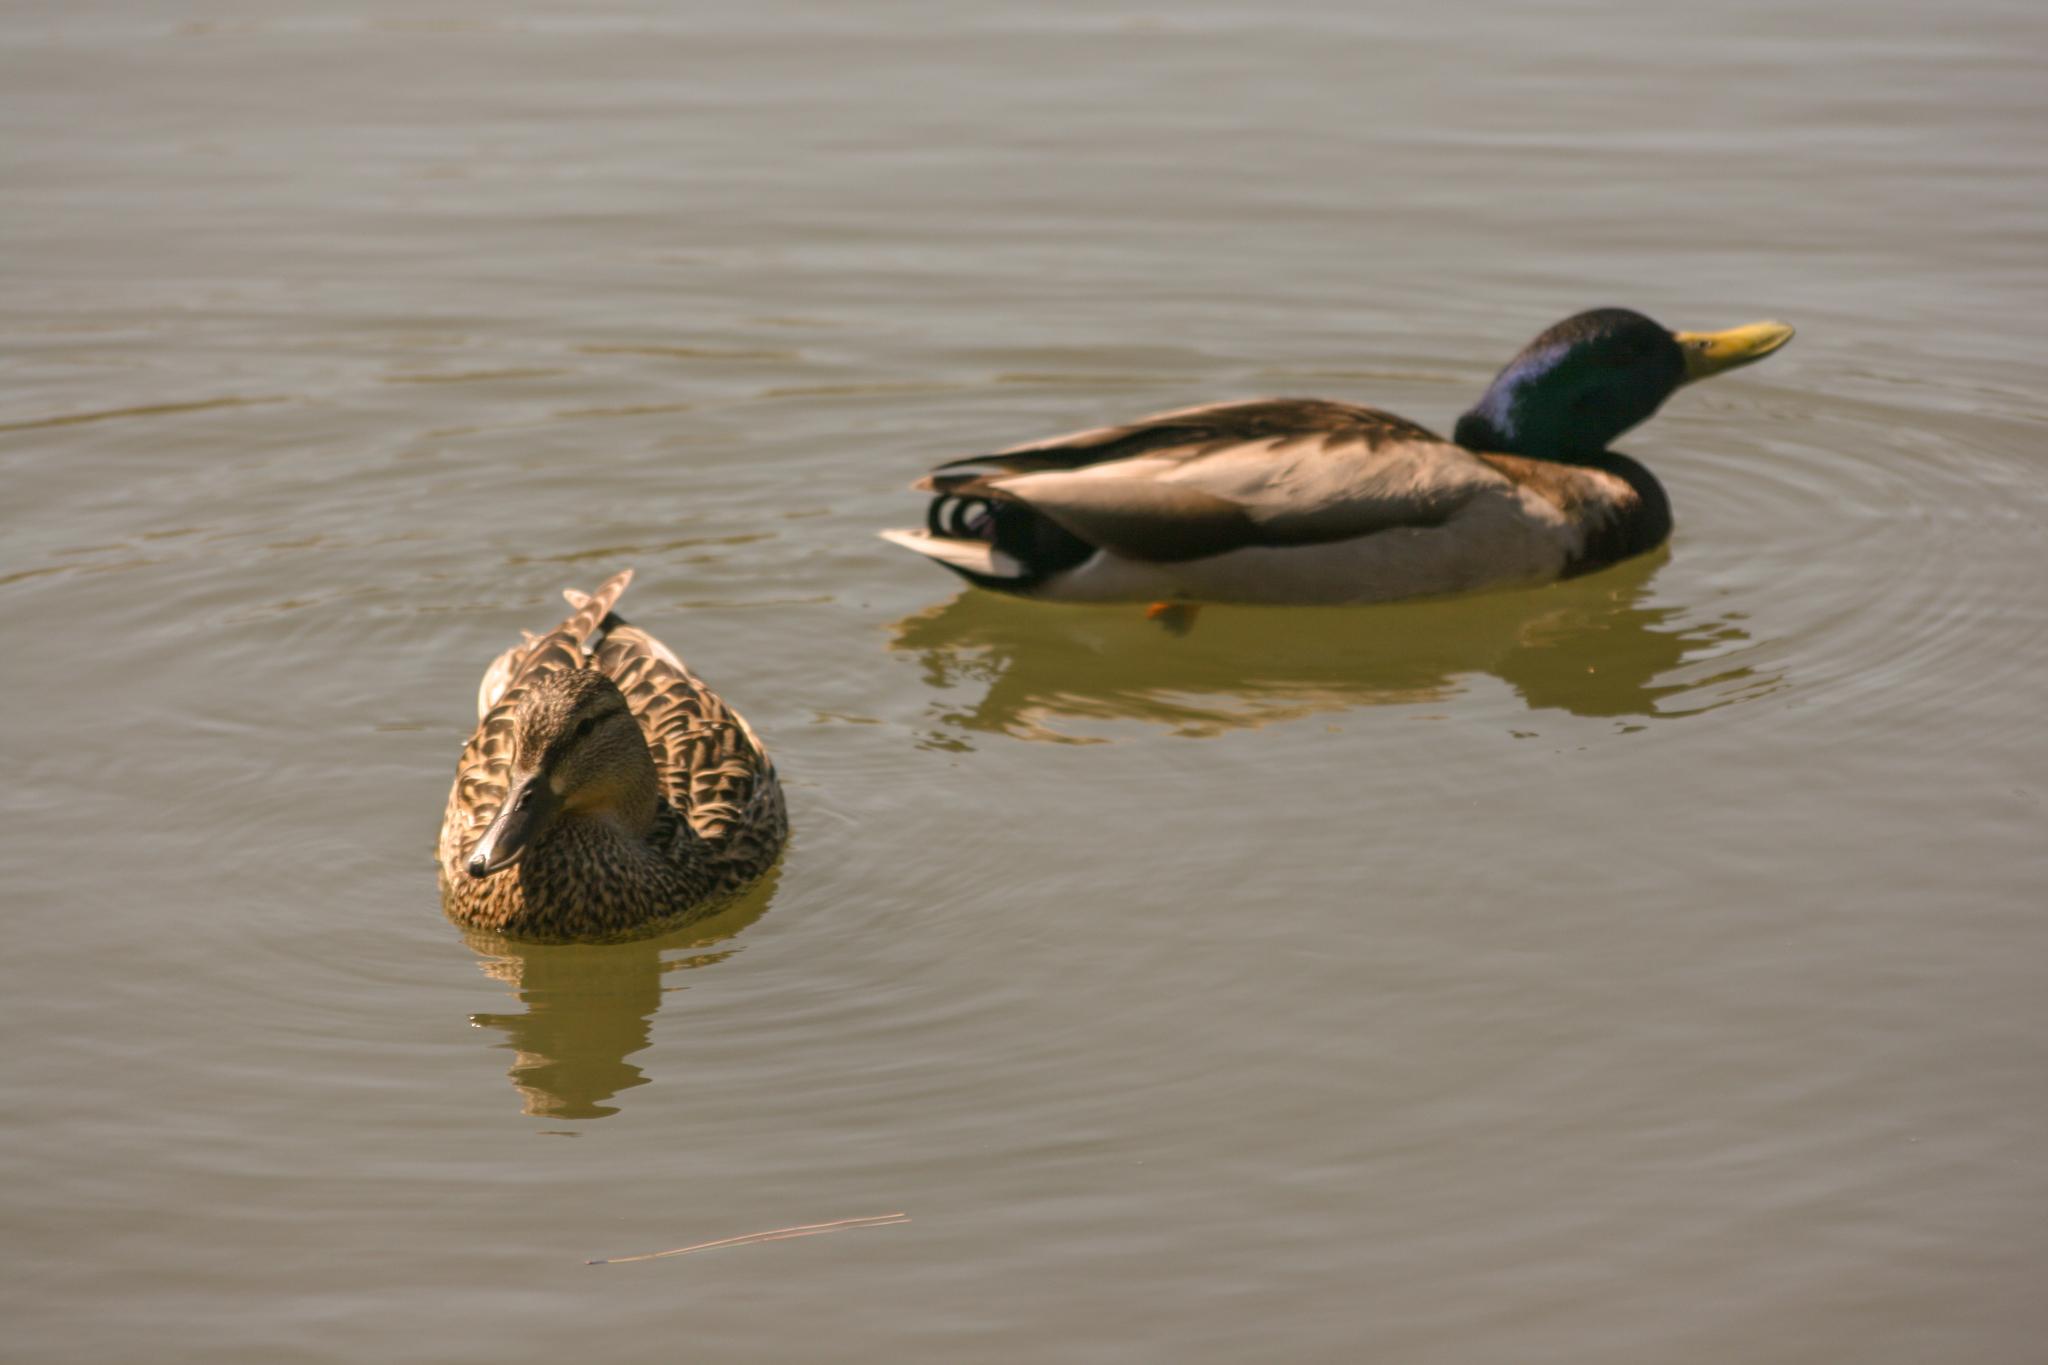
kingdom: Animalia
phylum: Chordata
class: Aves
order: Anseriformes
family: Anatidae
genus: Anas
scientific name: Anas platyrhynchos
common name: Mallard
